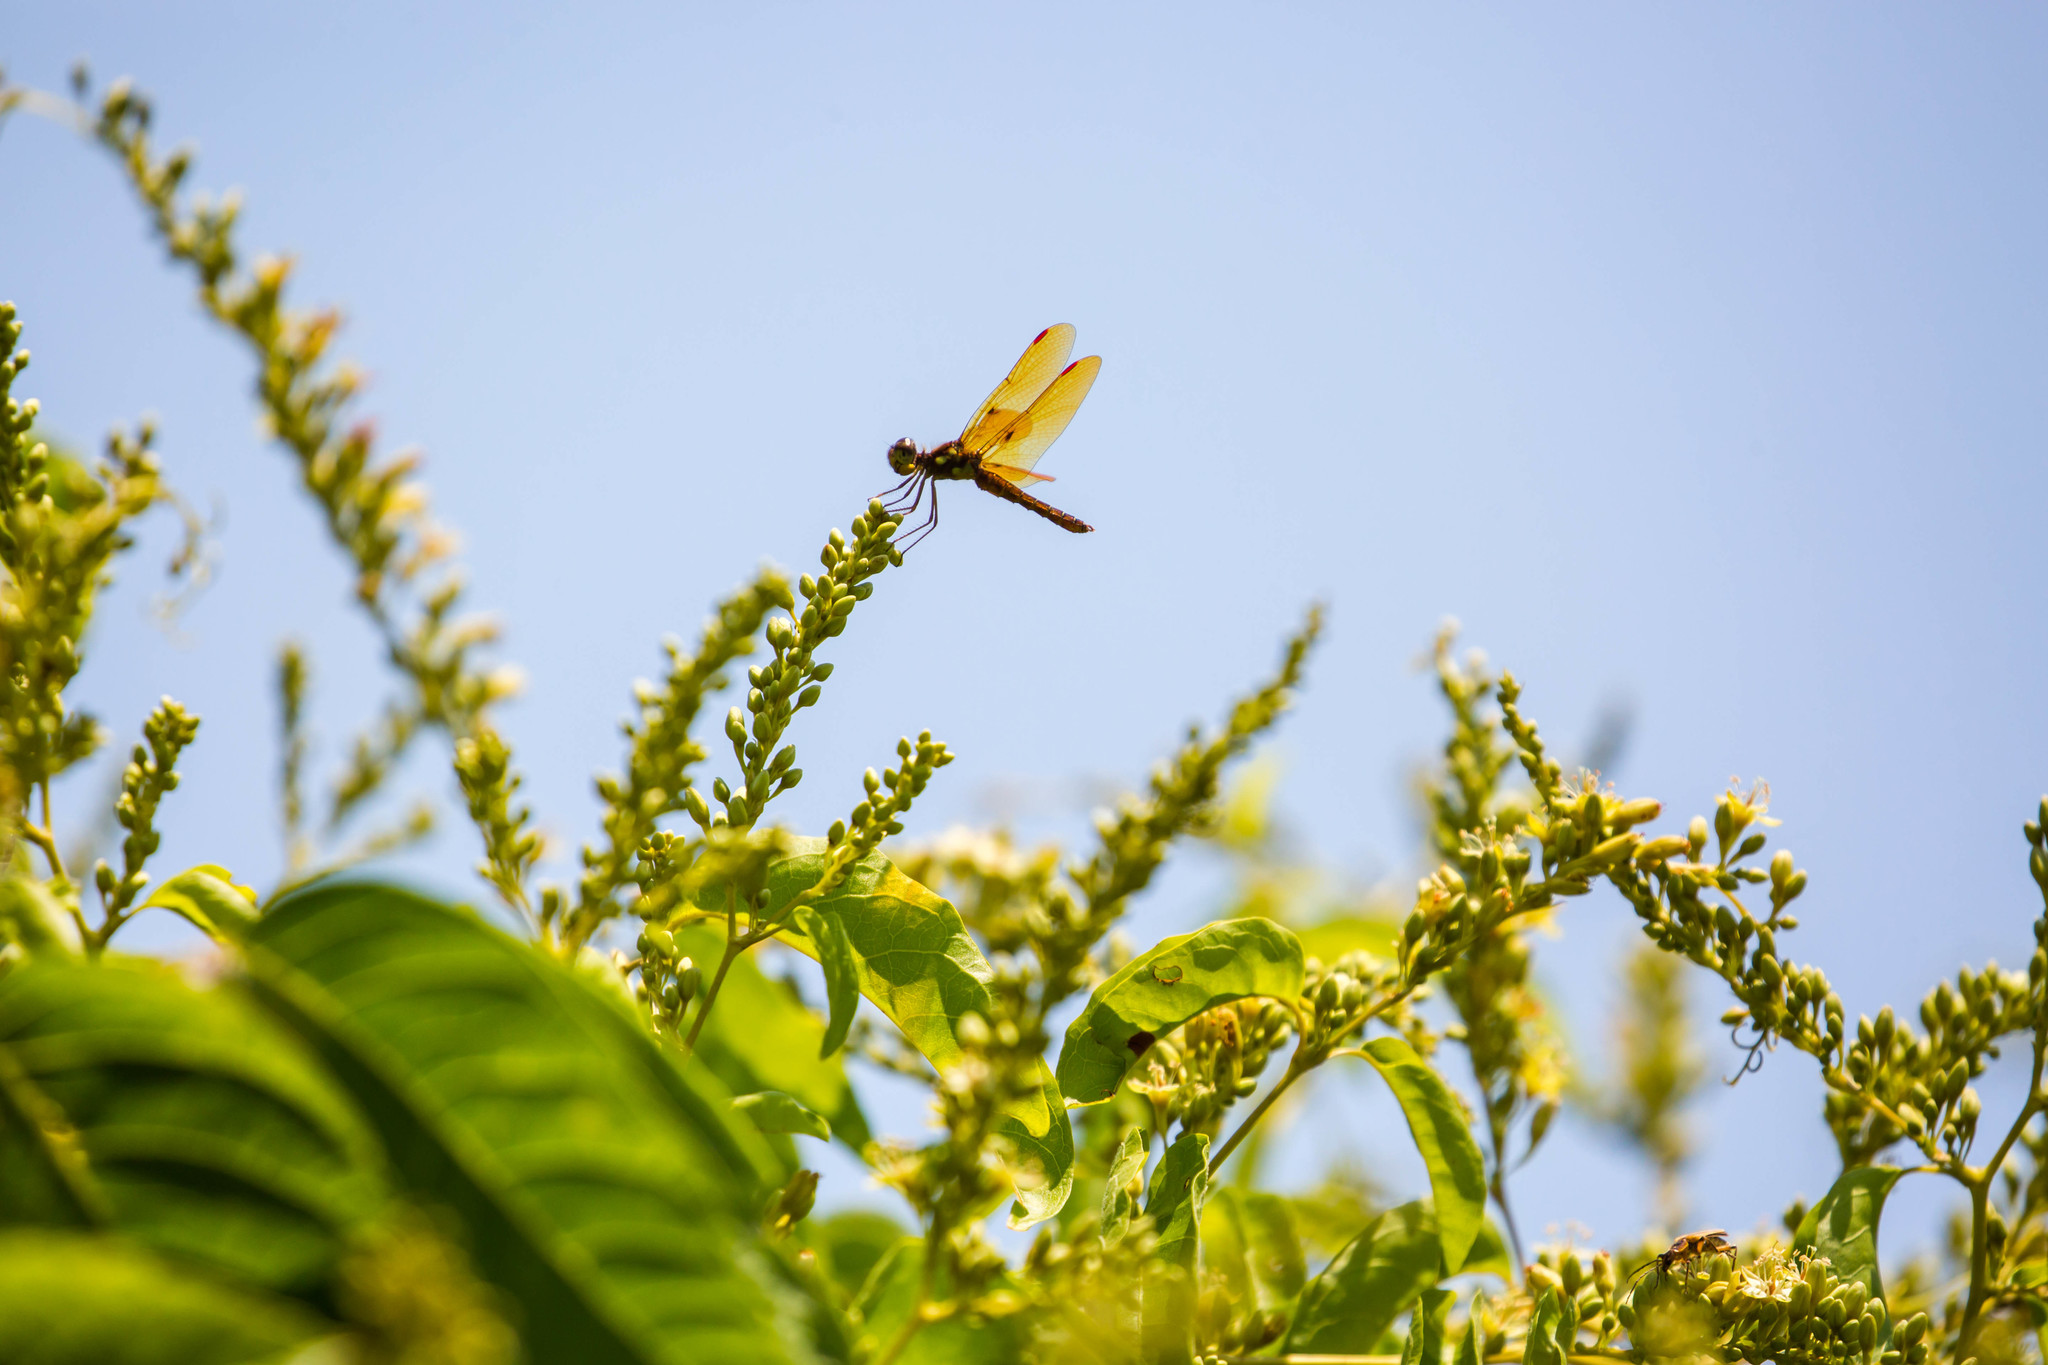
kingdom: Animalia
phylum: Arthropoda
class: Insecta
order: Odonata
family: Libellulidae
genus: Perithemis
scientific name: Perithemis tenera
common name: Eastern amberwing
